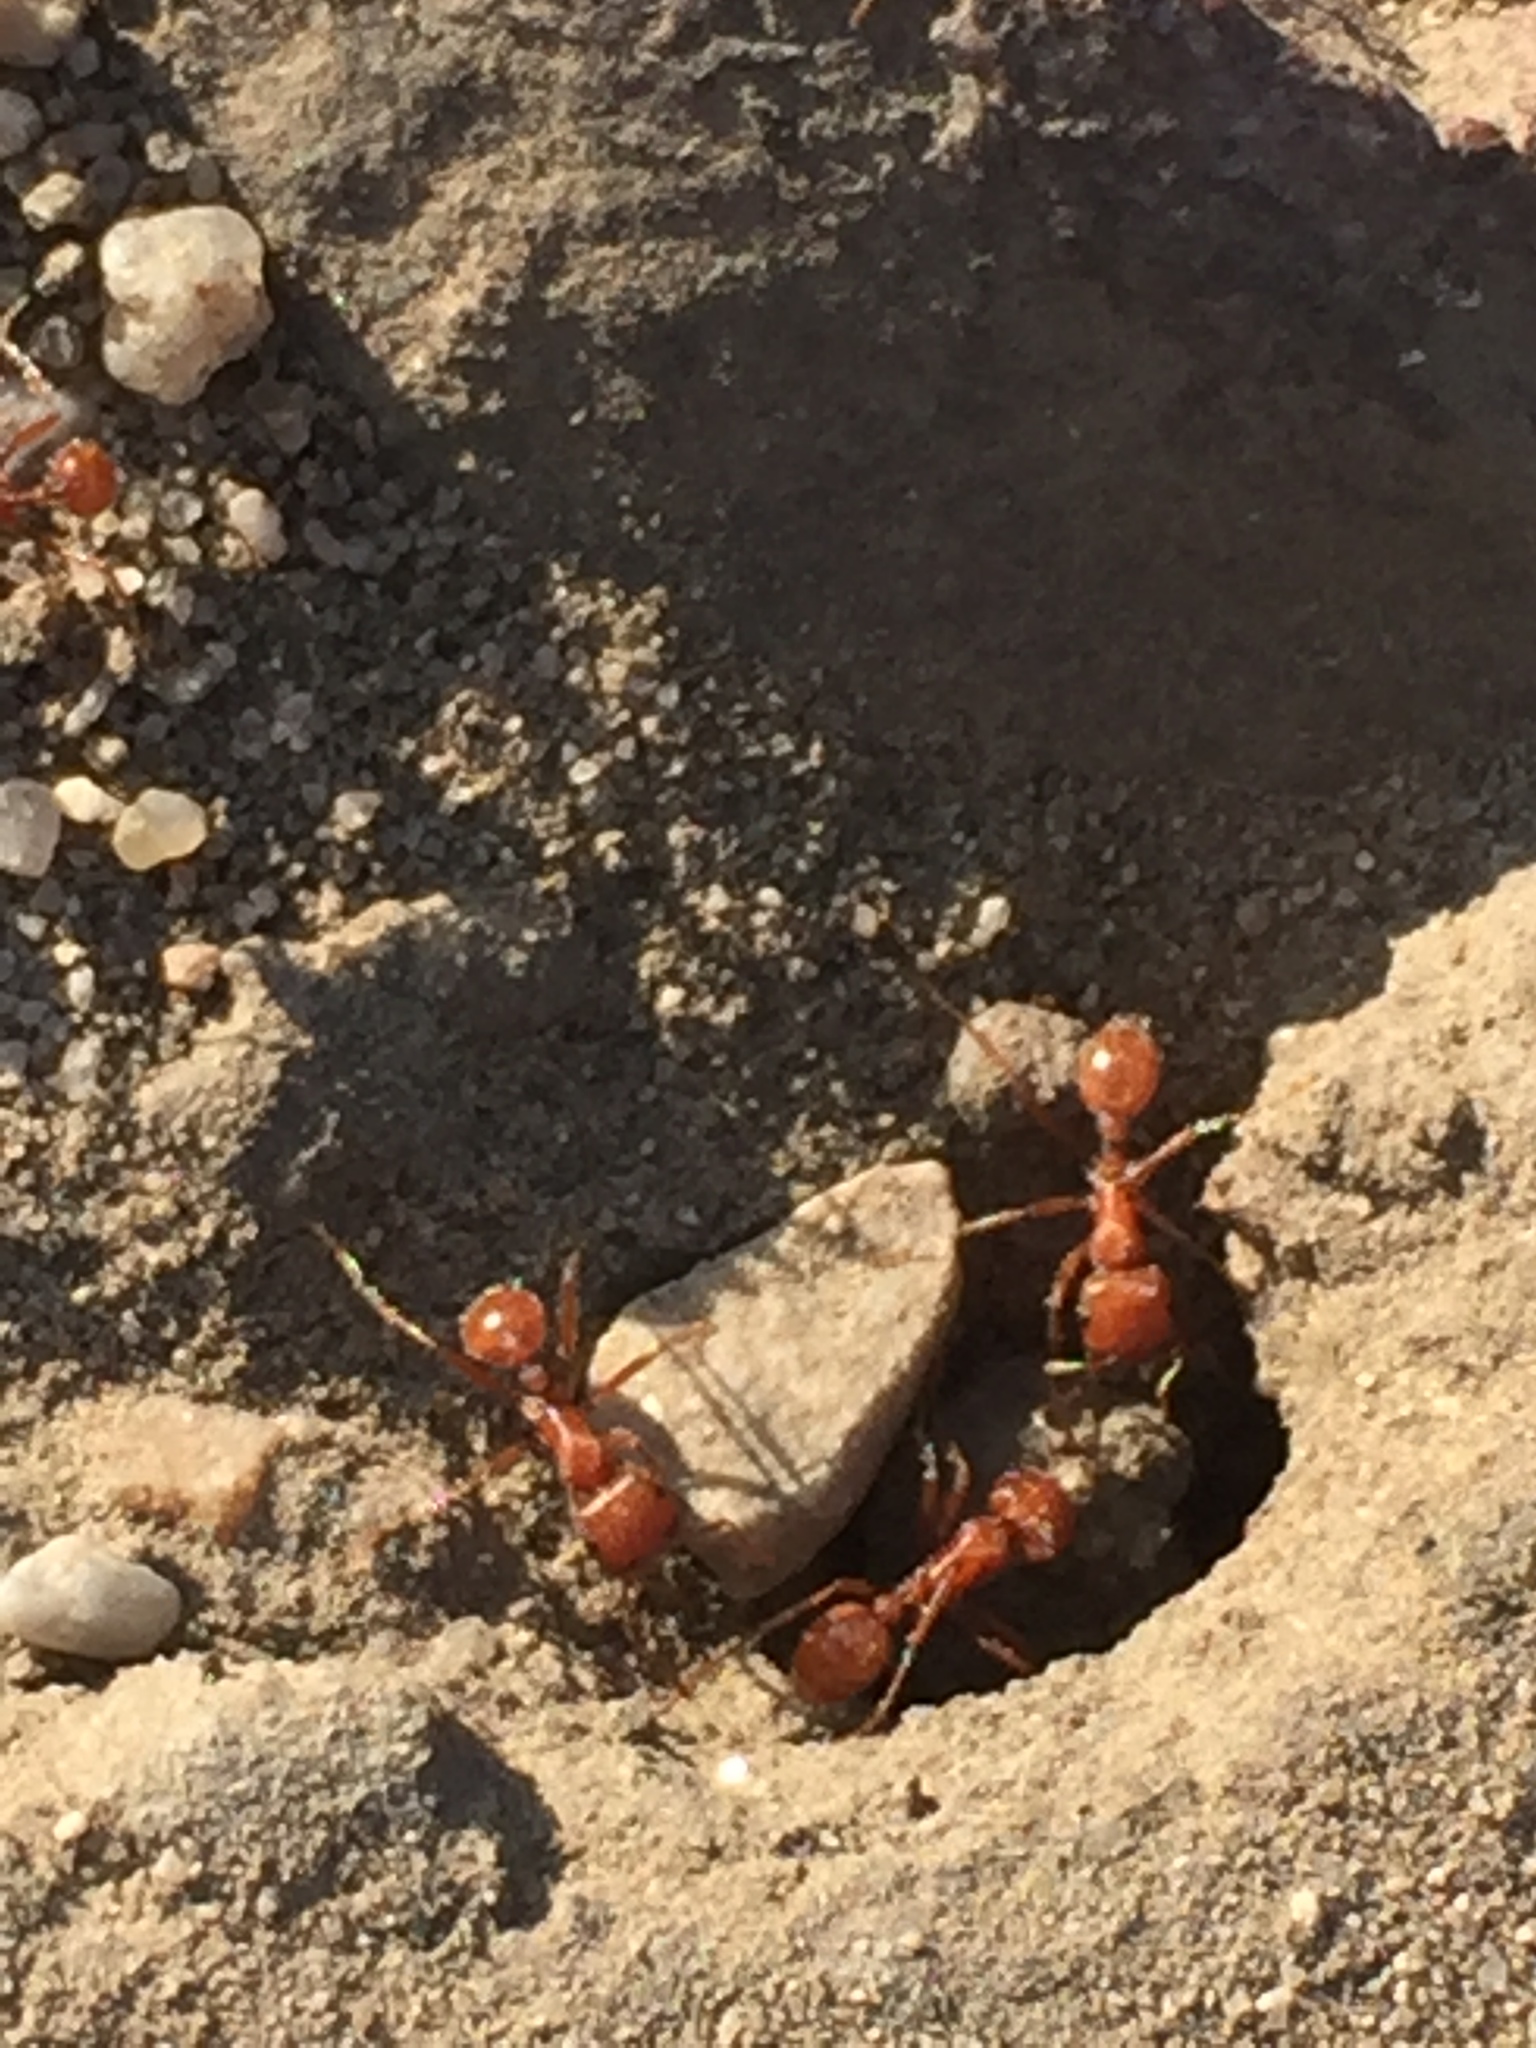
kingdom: Animalia
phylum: Arthropoda
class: Insecta
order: Hymenoptera
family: Formicidae
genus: Pogonomyrmex
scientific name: Pogonomyrmex californicus
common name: California harvester ant
